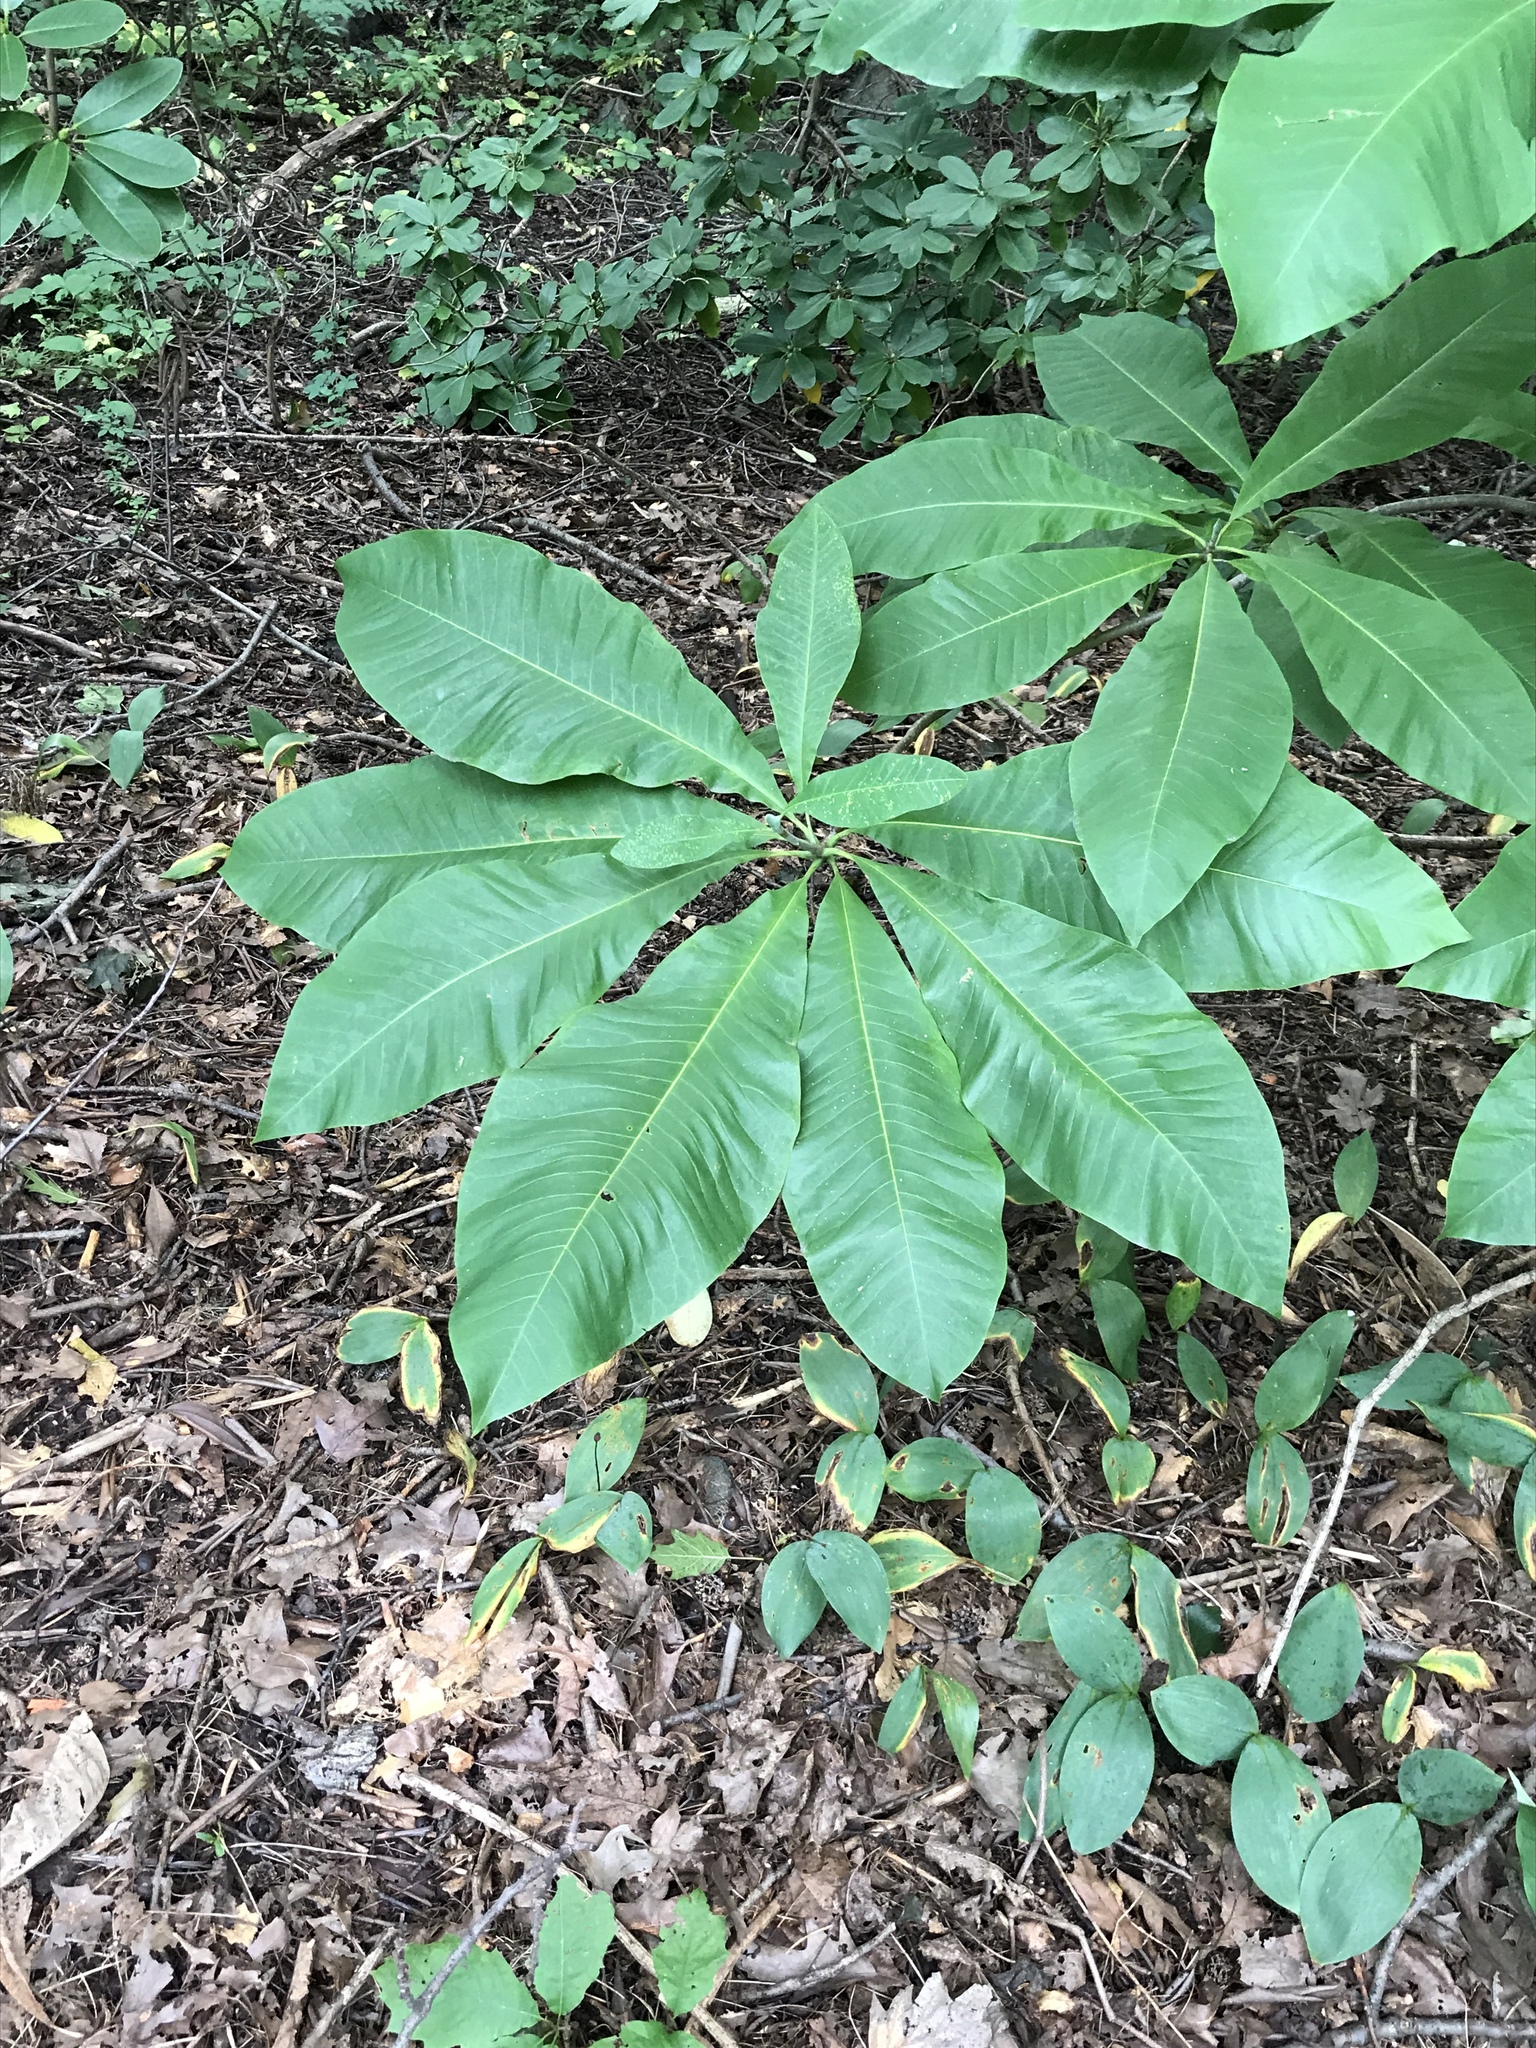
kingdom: Plantae
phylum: Tracheophyta
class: Magnoliopsida
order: Magnoliales
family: Magnoliaceae
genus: Magnolia
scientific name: Magnolia tripetala
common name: Umbrella magnolia
